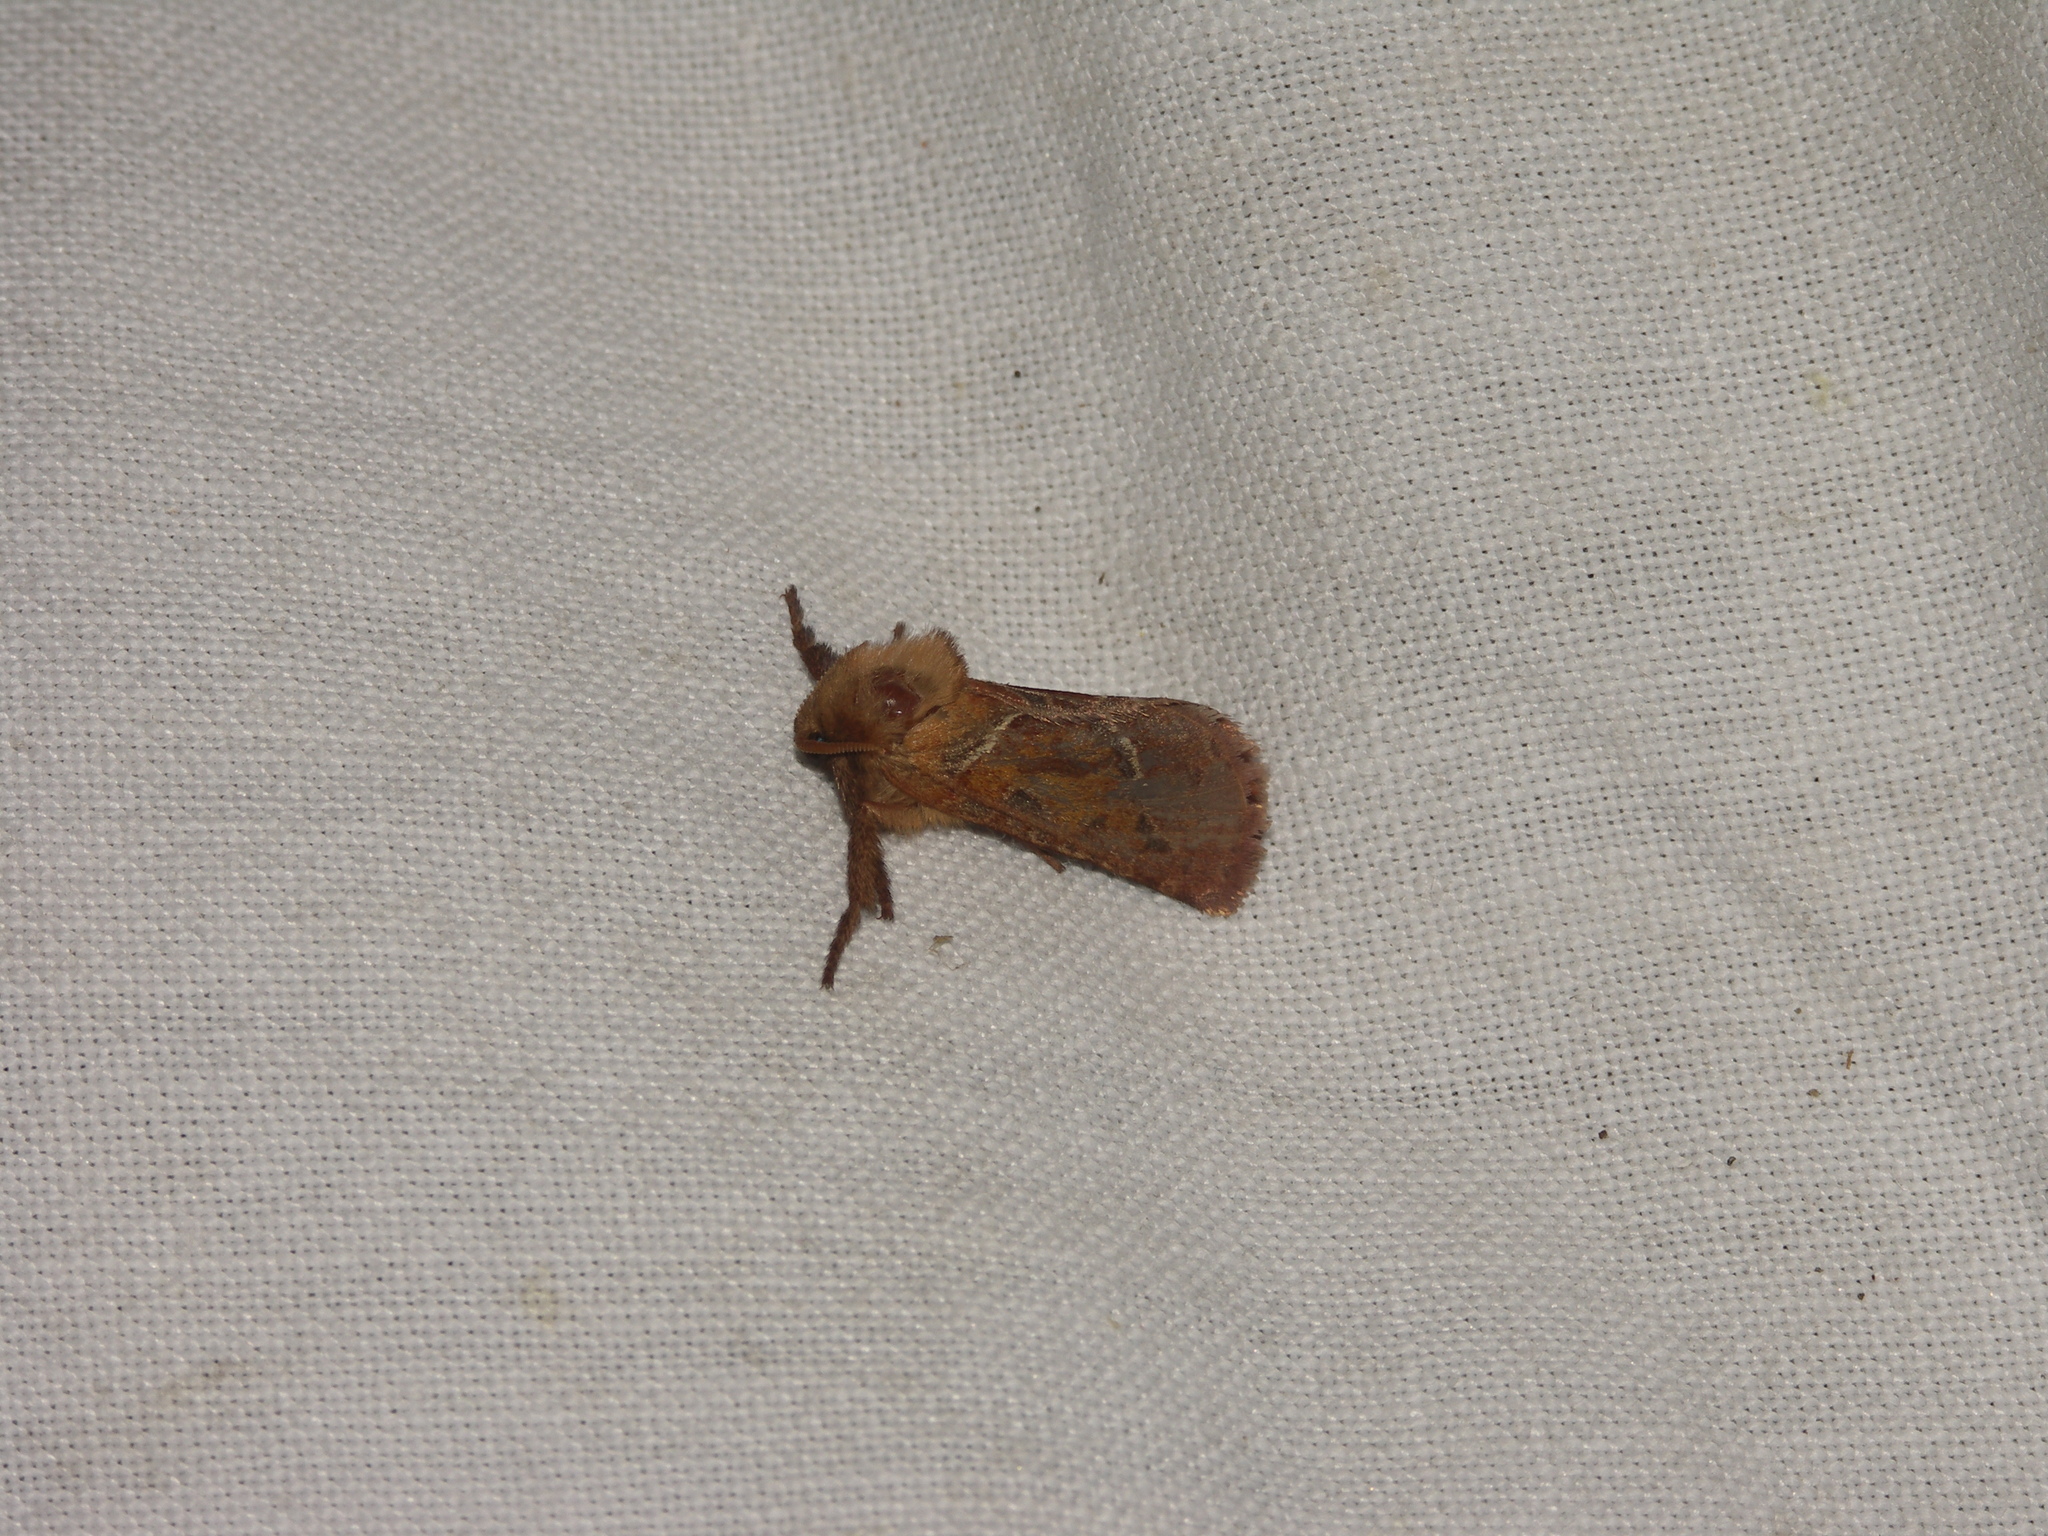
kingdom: Animalia
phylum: Arthropoda
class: Insecta
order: Lepidoptera
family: Hepialidae
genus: Triodia
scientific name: Triodia sylvina
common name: Orange swift
